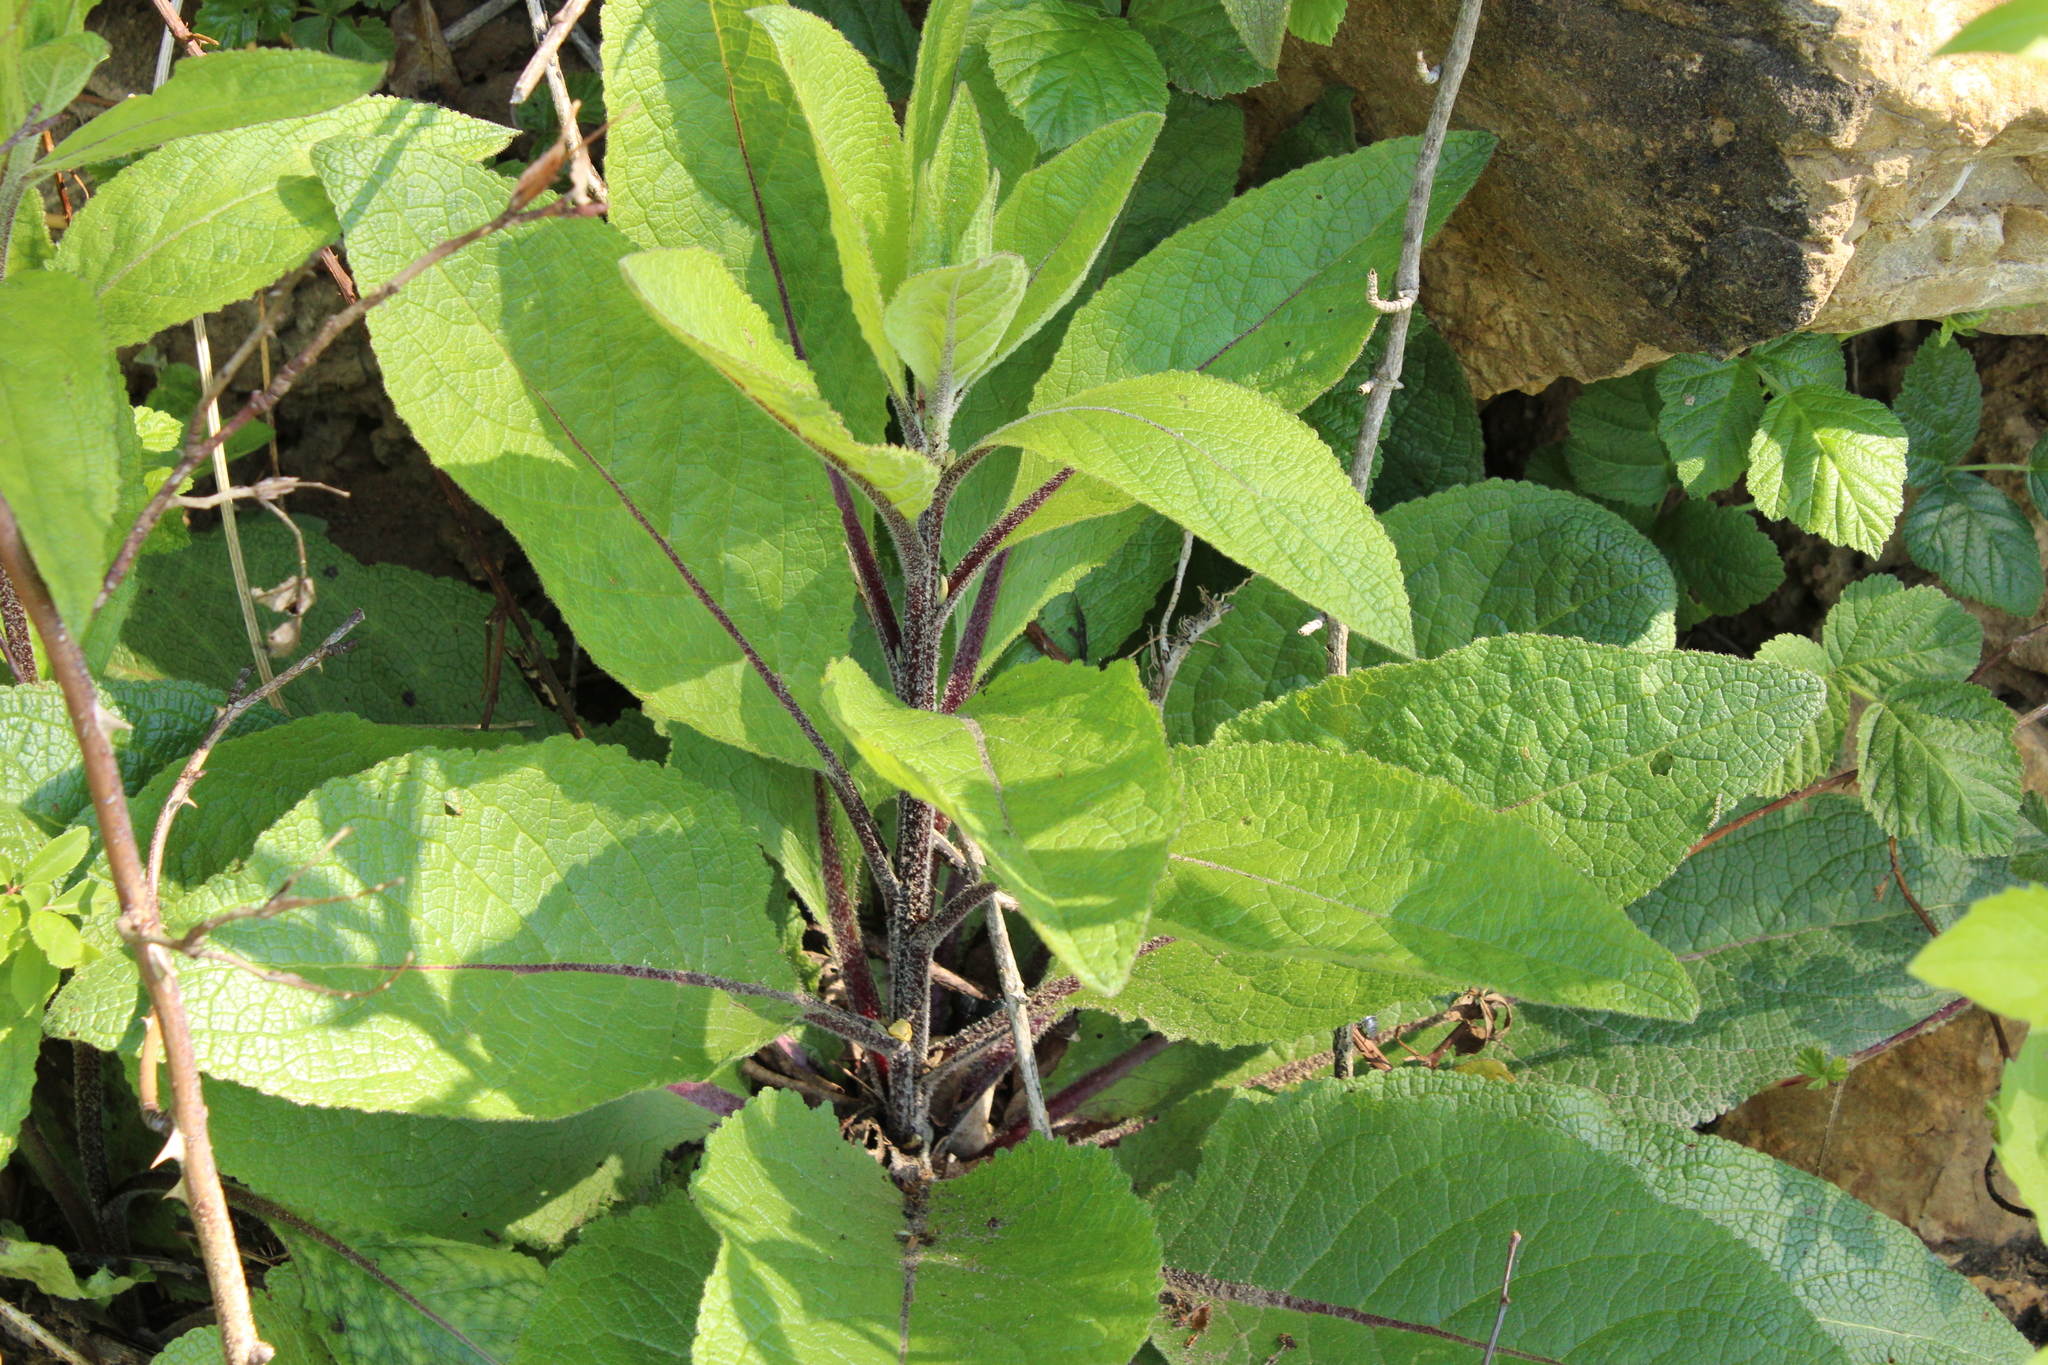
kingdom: Plantae
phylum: Tracheophyta
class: Magnoliopsida
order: Lamiales
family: Scrophulariaceae
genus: Verbascum
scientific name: Verbascum chaixii
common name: Nettle-leaved mullein
